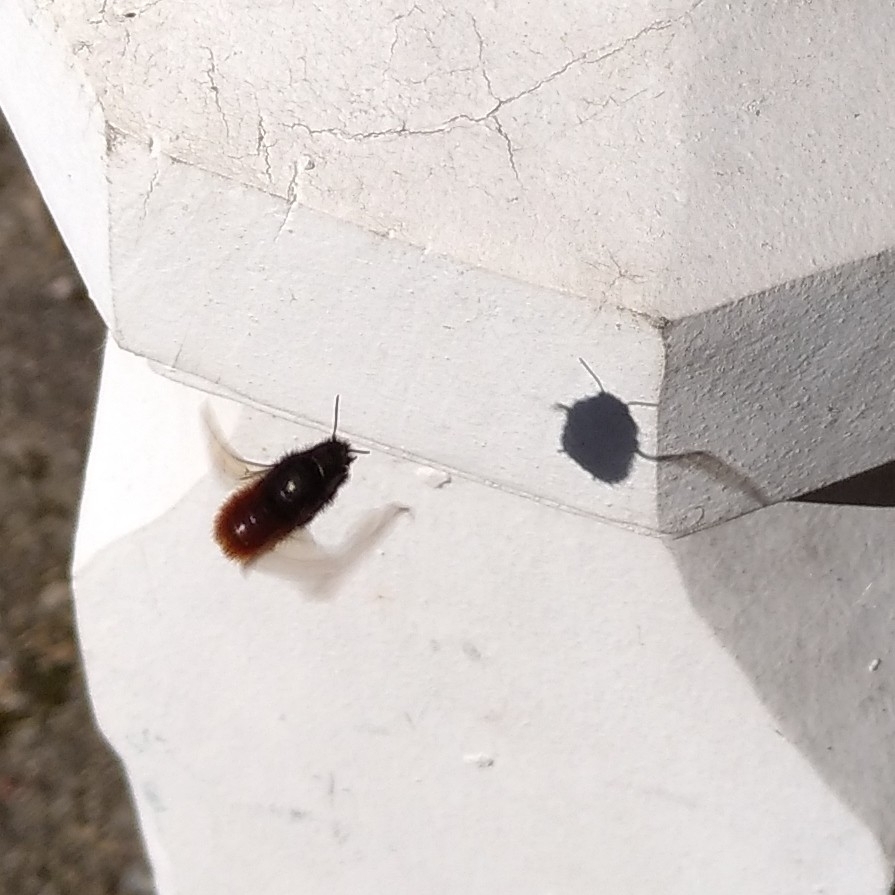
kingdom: Animalia
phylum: Arthropoda
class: Insecta
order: Hymenoptera
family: Megachilidae
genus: Osmia
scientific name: Osmia cornuta
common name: Mason bee
